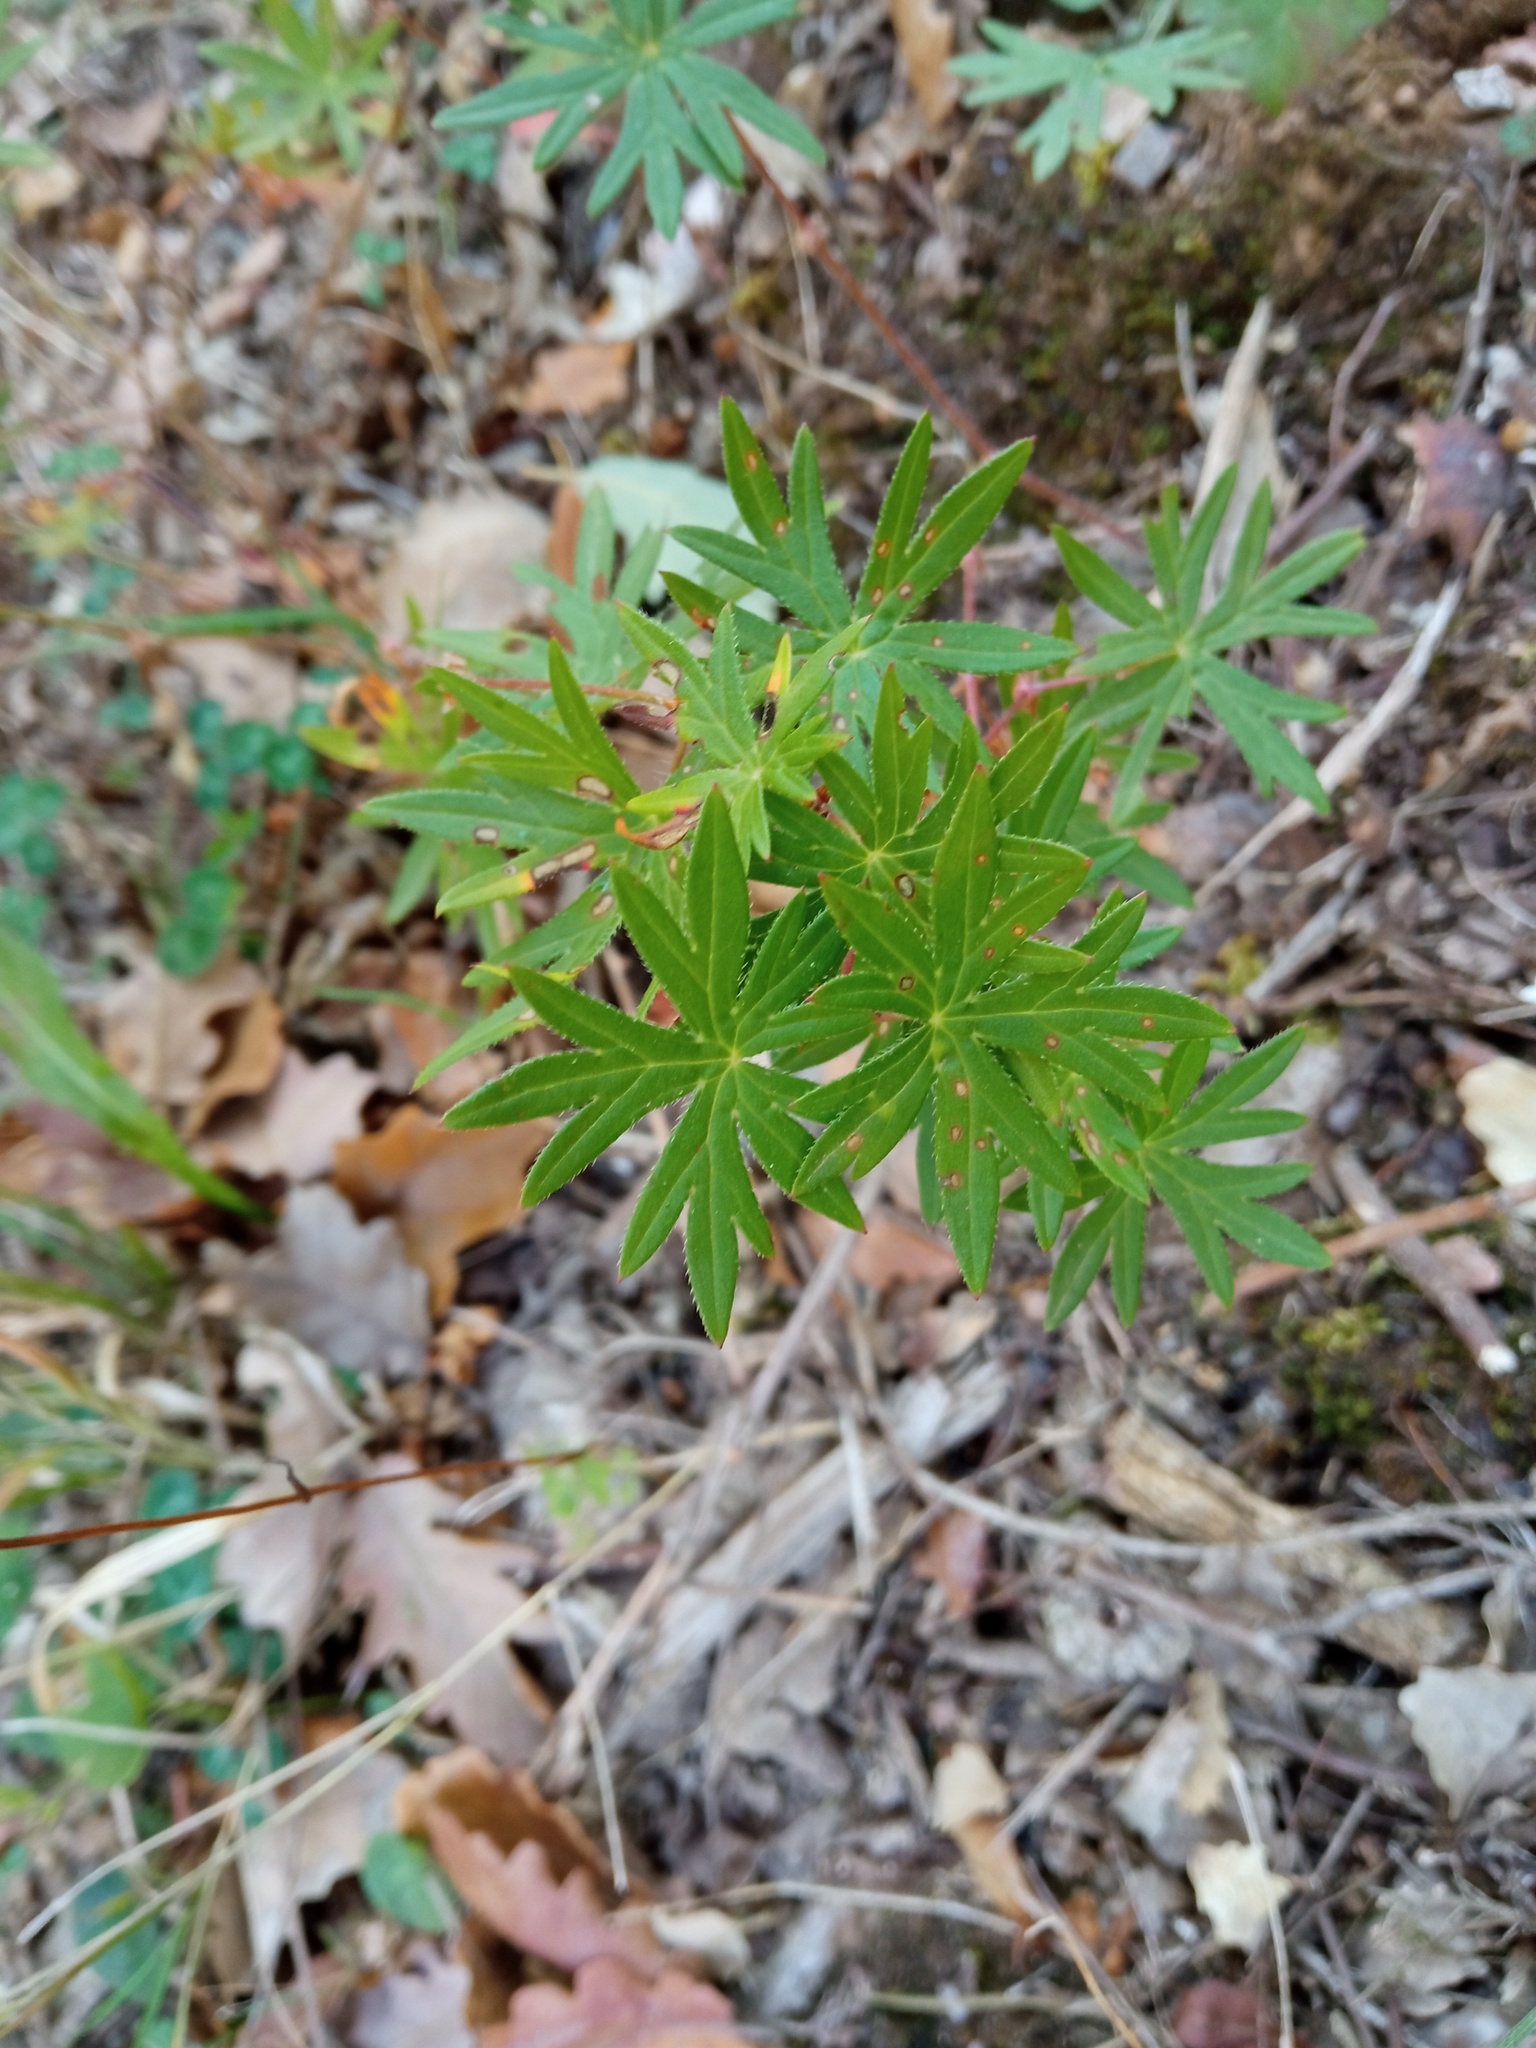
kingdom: Plantae
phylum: Tracheophyta
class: Magnoliopsida
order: Geraniales
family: Geraniaceae
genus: Geranium
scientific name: Geranium sanguineum
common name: Bloody crane's-bill
